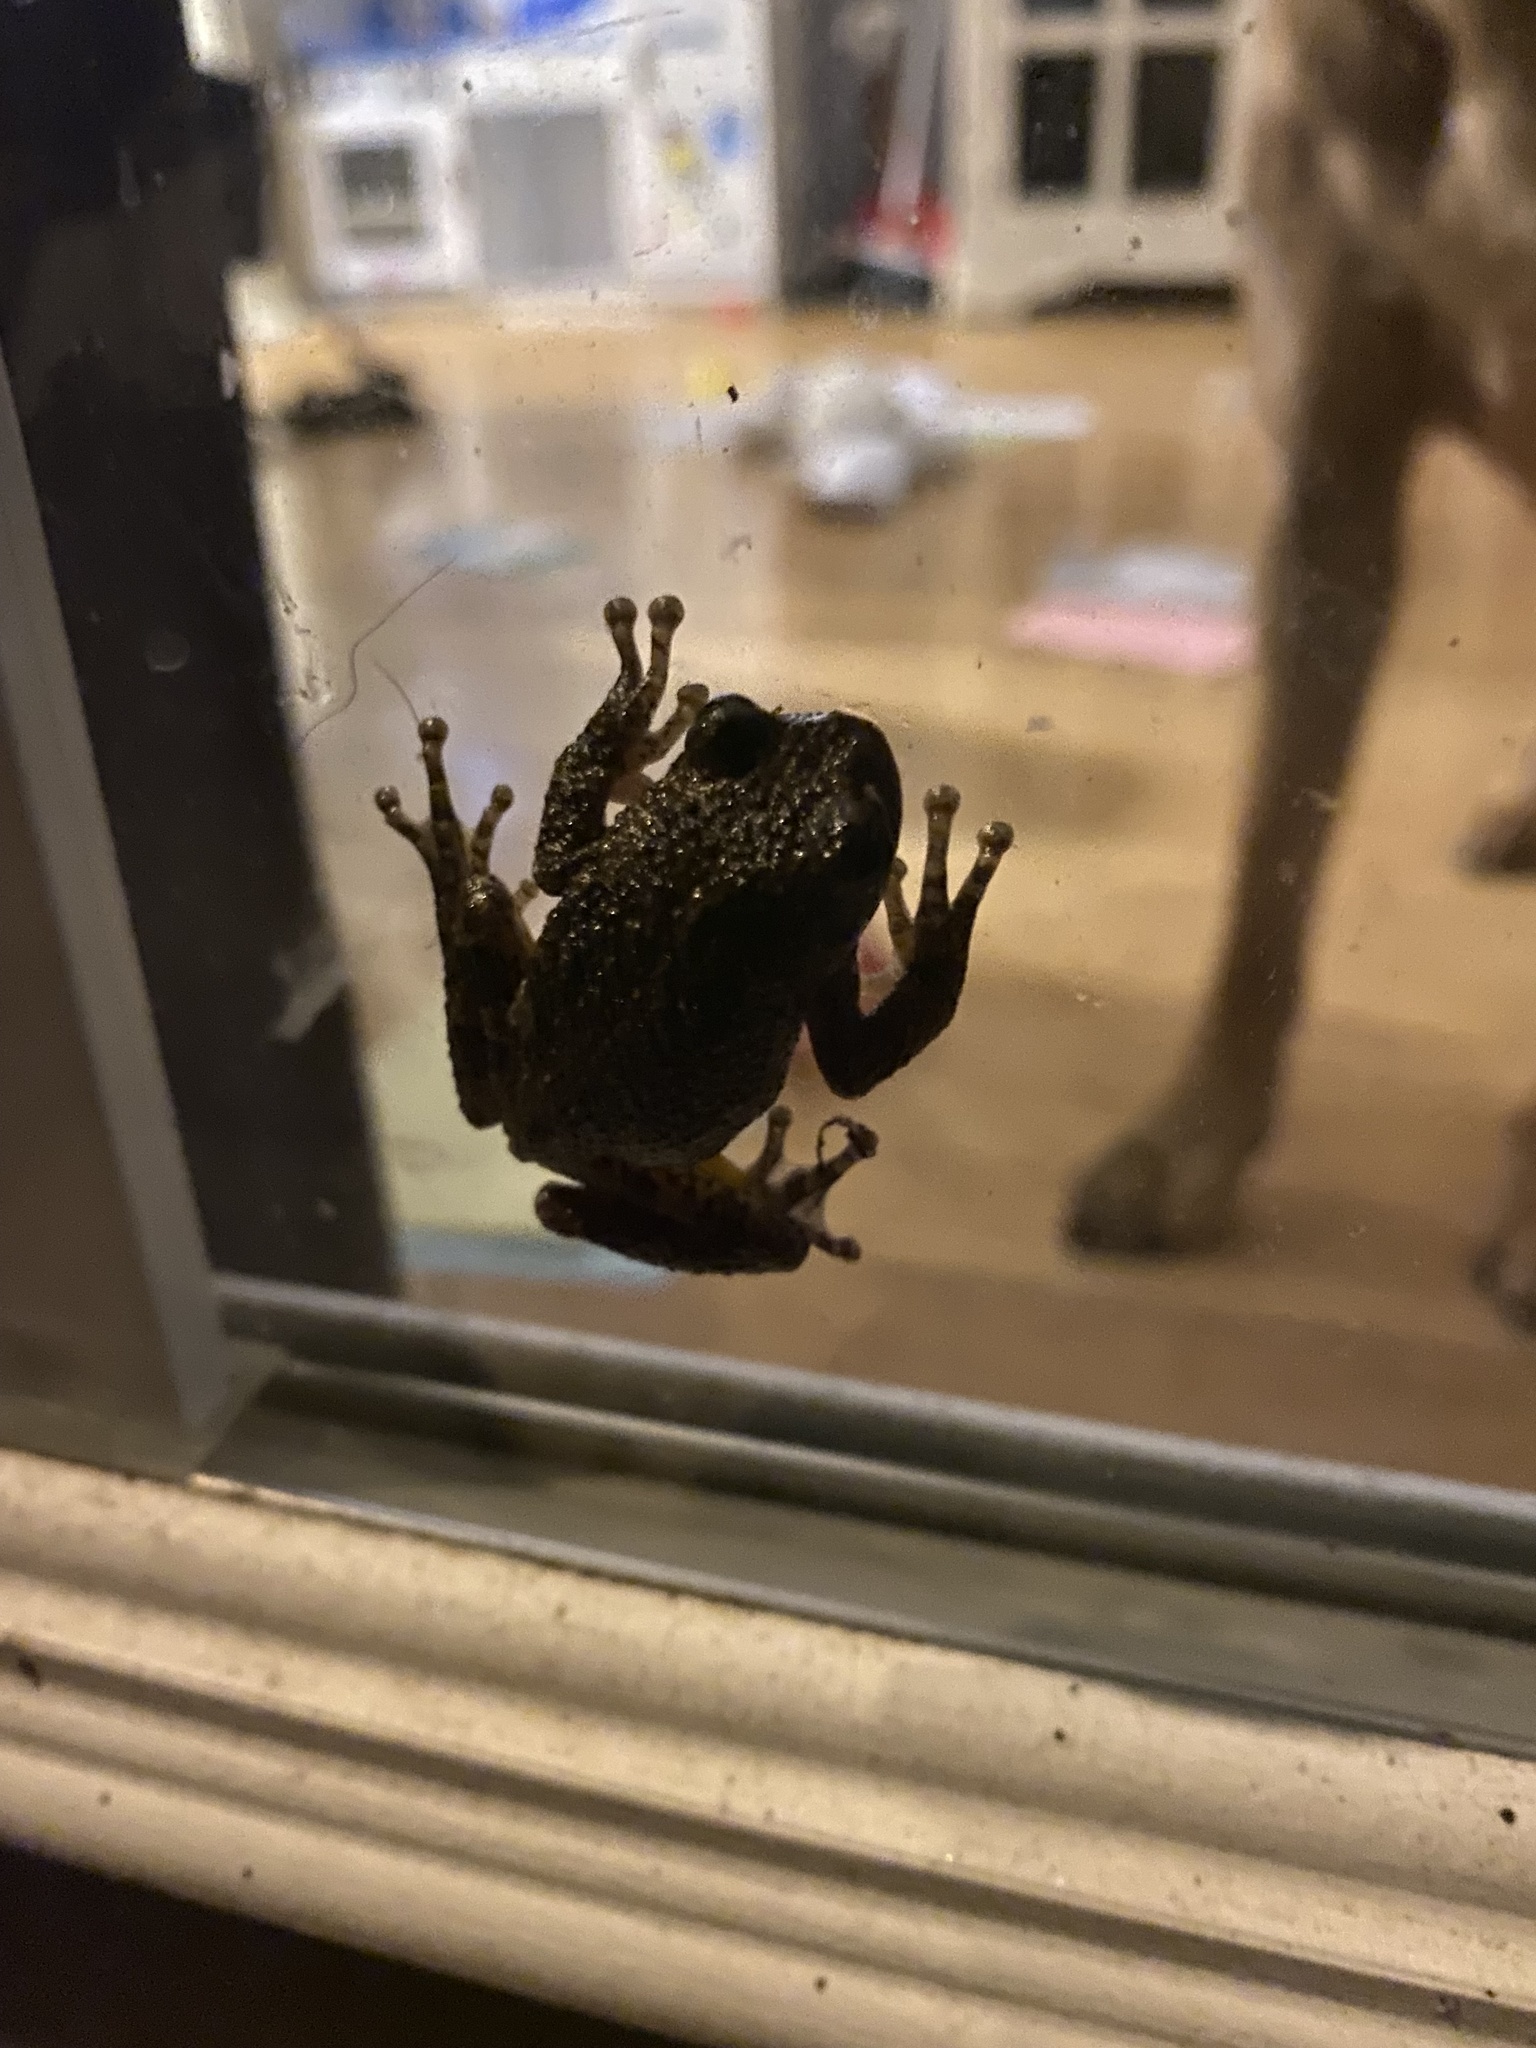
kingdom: Animalia
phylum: Chordata
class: Amphibia
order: Anura
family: Hylidae
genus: Dryophytes
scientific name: Dryophytes chrysoscelis
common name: Cope's gray treefrog
